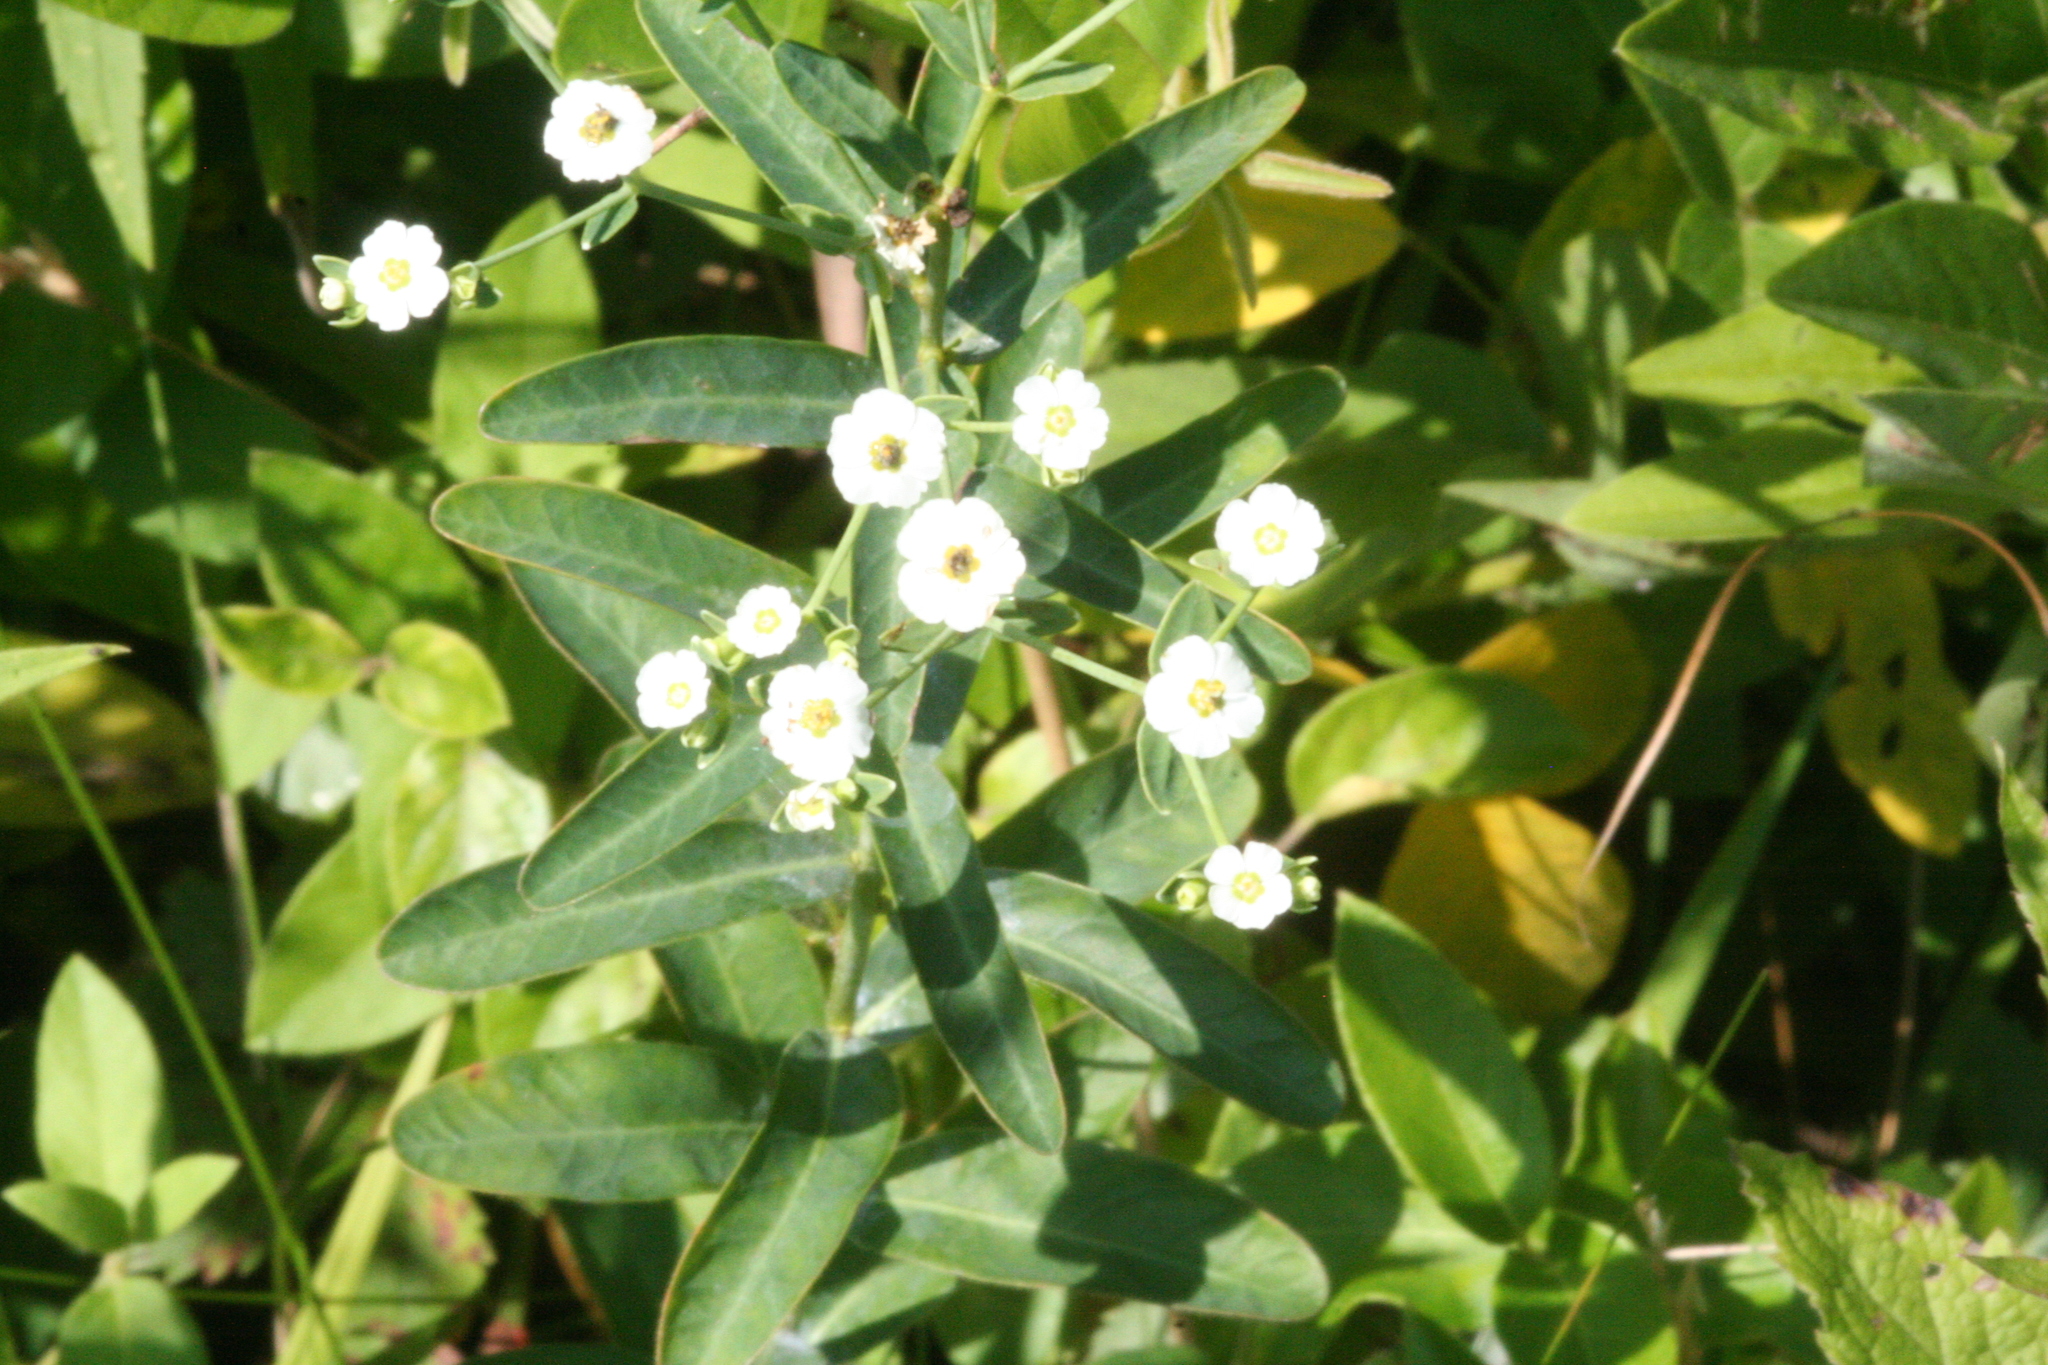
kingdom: Plantae
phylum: Tracheophyta
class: Magnoliopsida
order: Malpighiales
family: Euphorbiaceae
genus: Euphorbia
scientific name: Euphorbia corollata
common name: Flowering spurge
